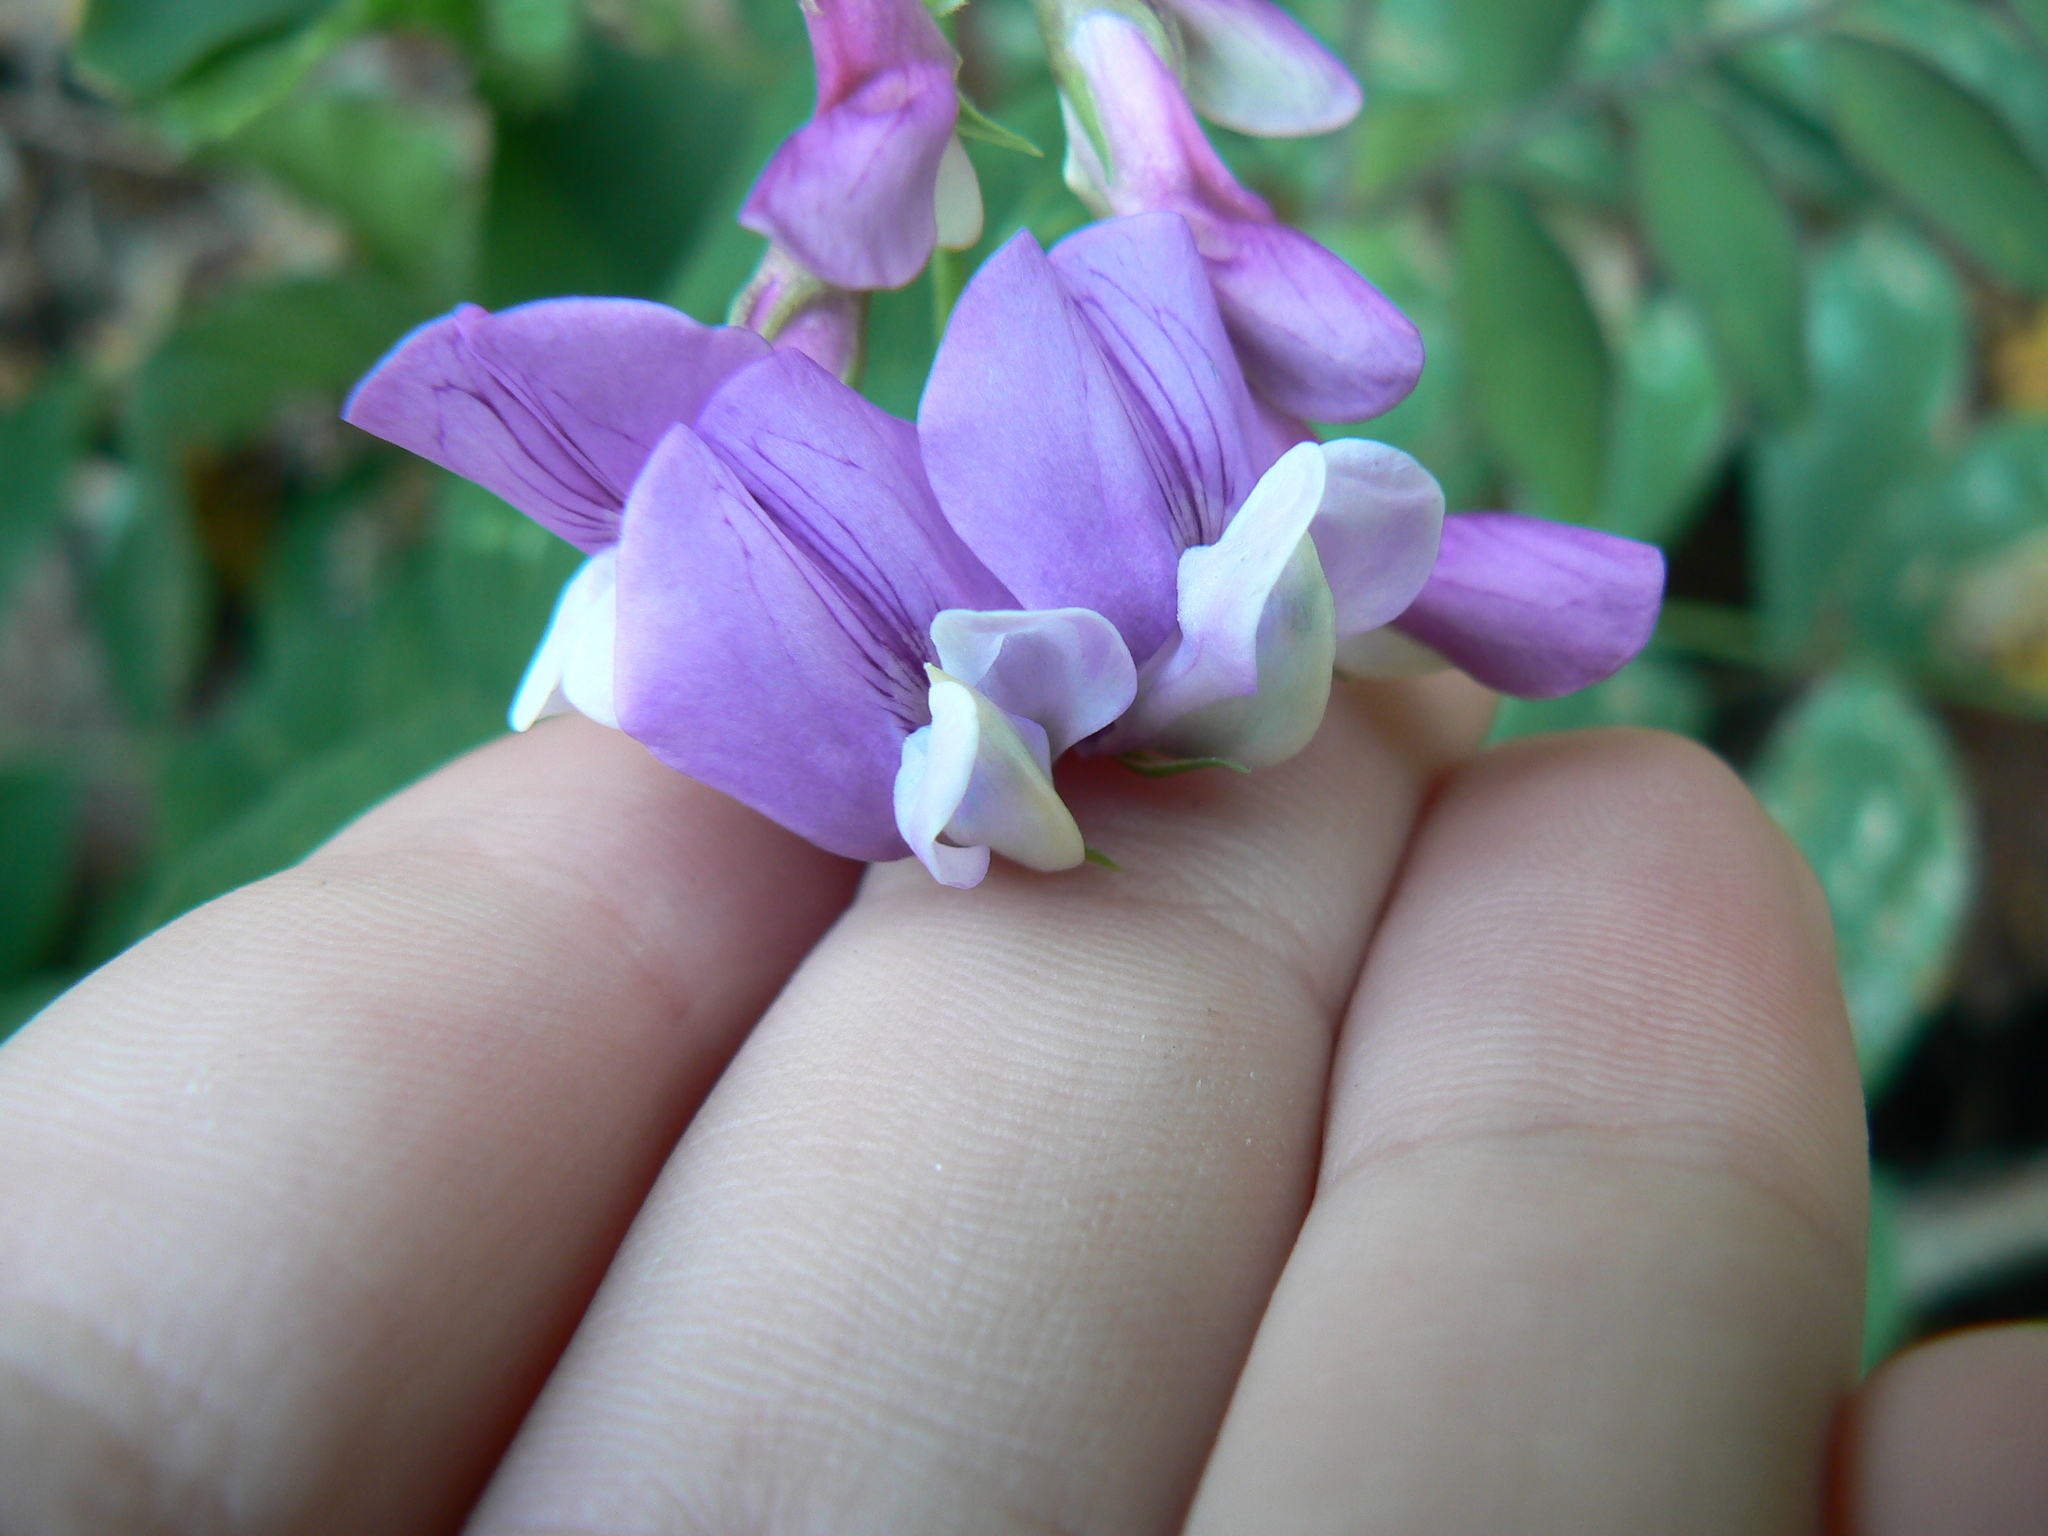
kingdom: Plantae
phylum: Tracheophyta
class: Magnoliopsida
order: Fabales
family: Fabaceae
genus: Lathyrus
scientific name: Lathyrus polyphyllus
